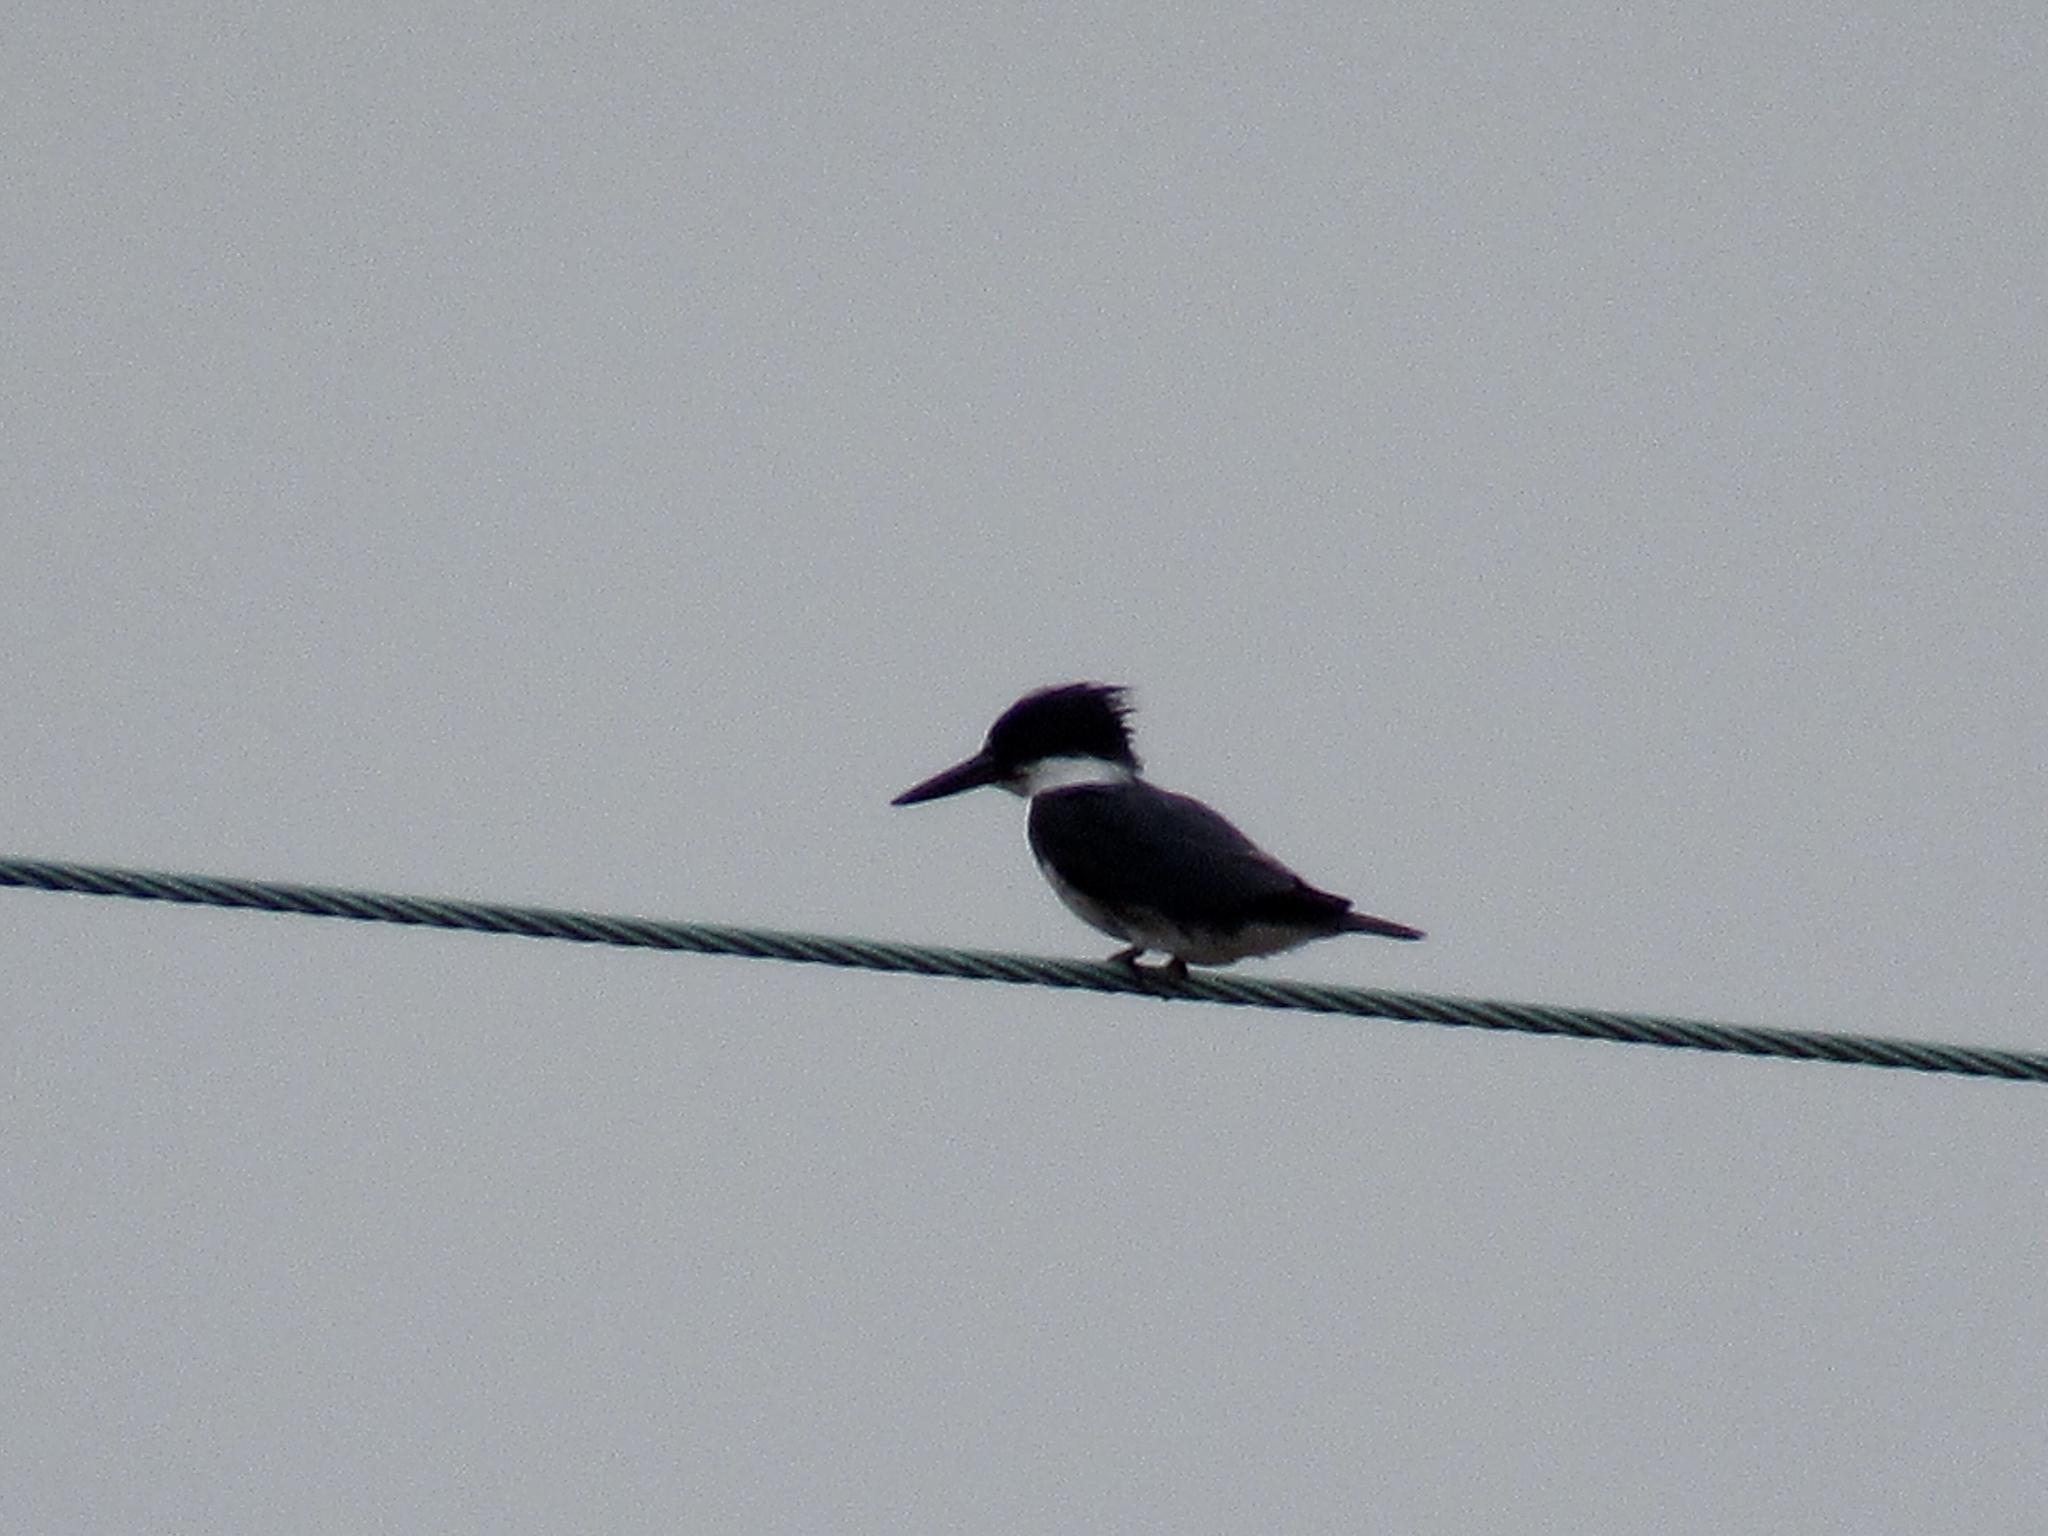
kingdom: Animalia
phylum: Chordata
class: Aves
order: Coraciiformes
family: Alcedinidae
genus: Megaceryle
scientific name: Megaceryle alcyon
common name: Belted kingfisher
